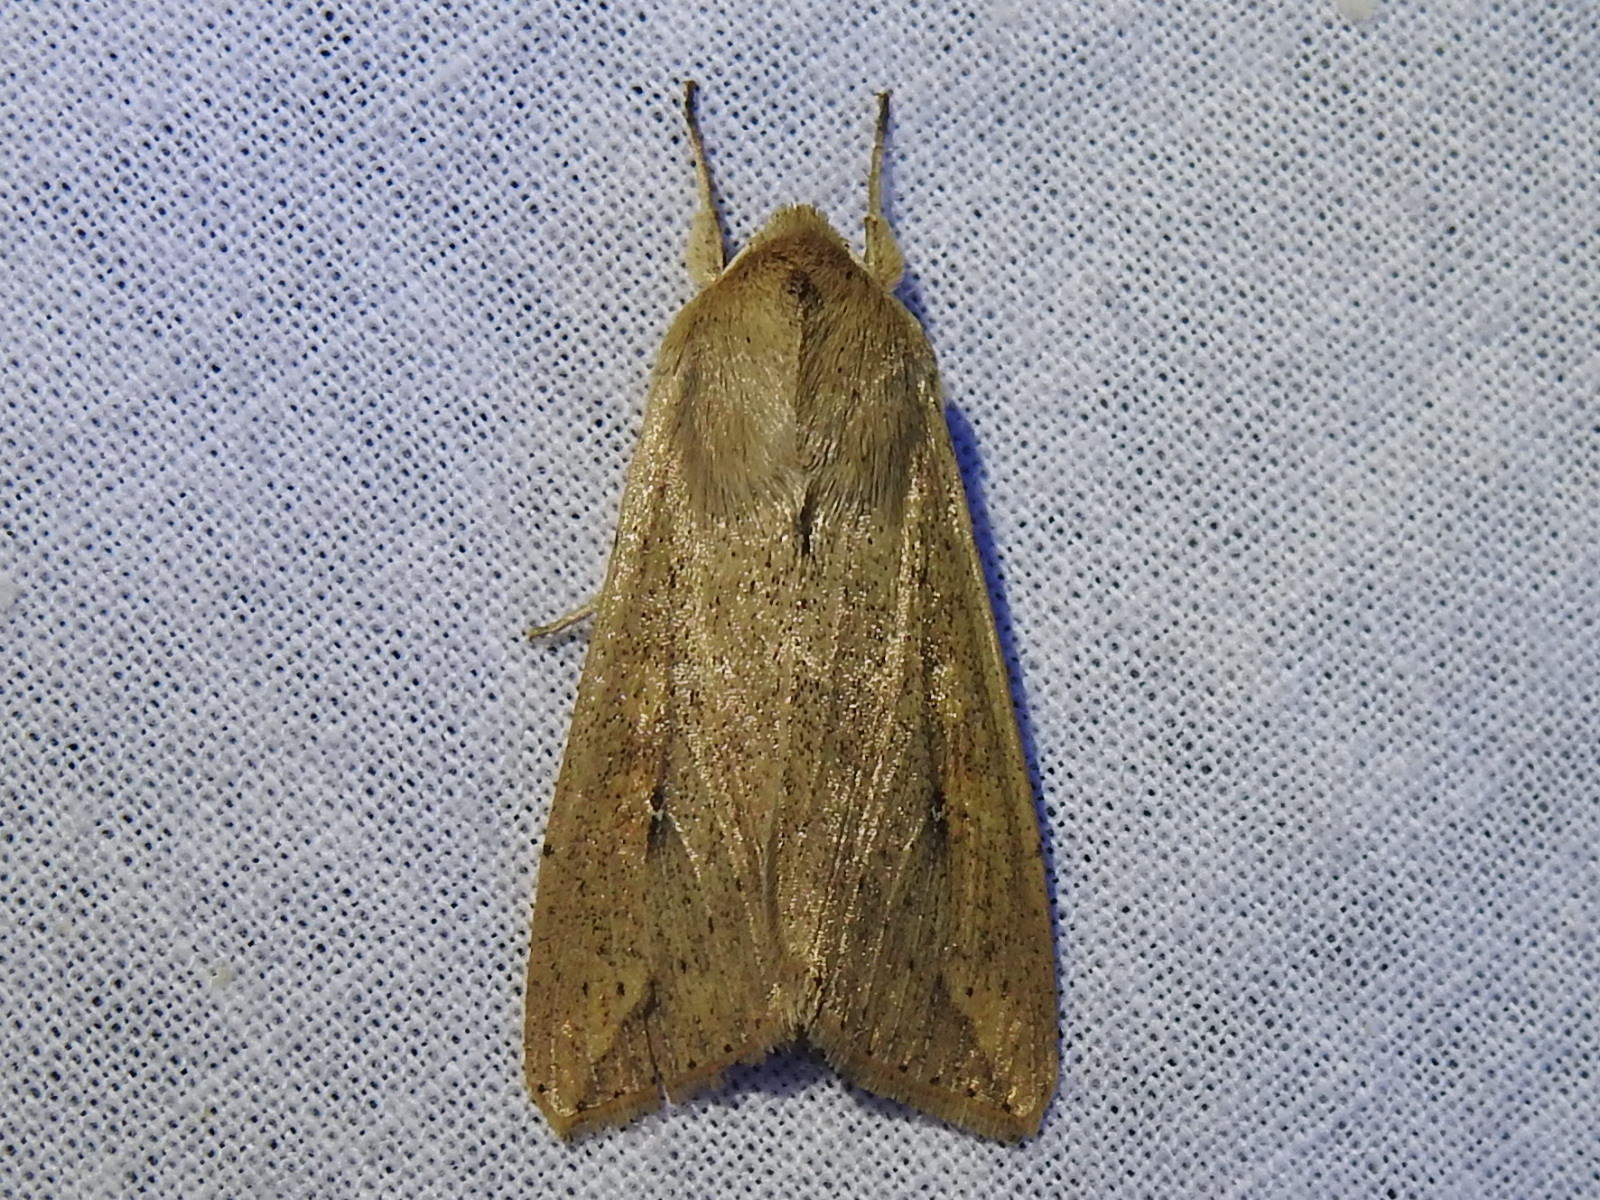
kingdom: Animalia
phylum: Arthropoda
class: Insecta
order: Lepidoptera
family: Noctuidae
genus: Mythimna
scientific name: Mythimna unipuncta
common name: White-speck
